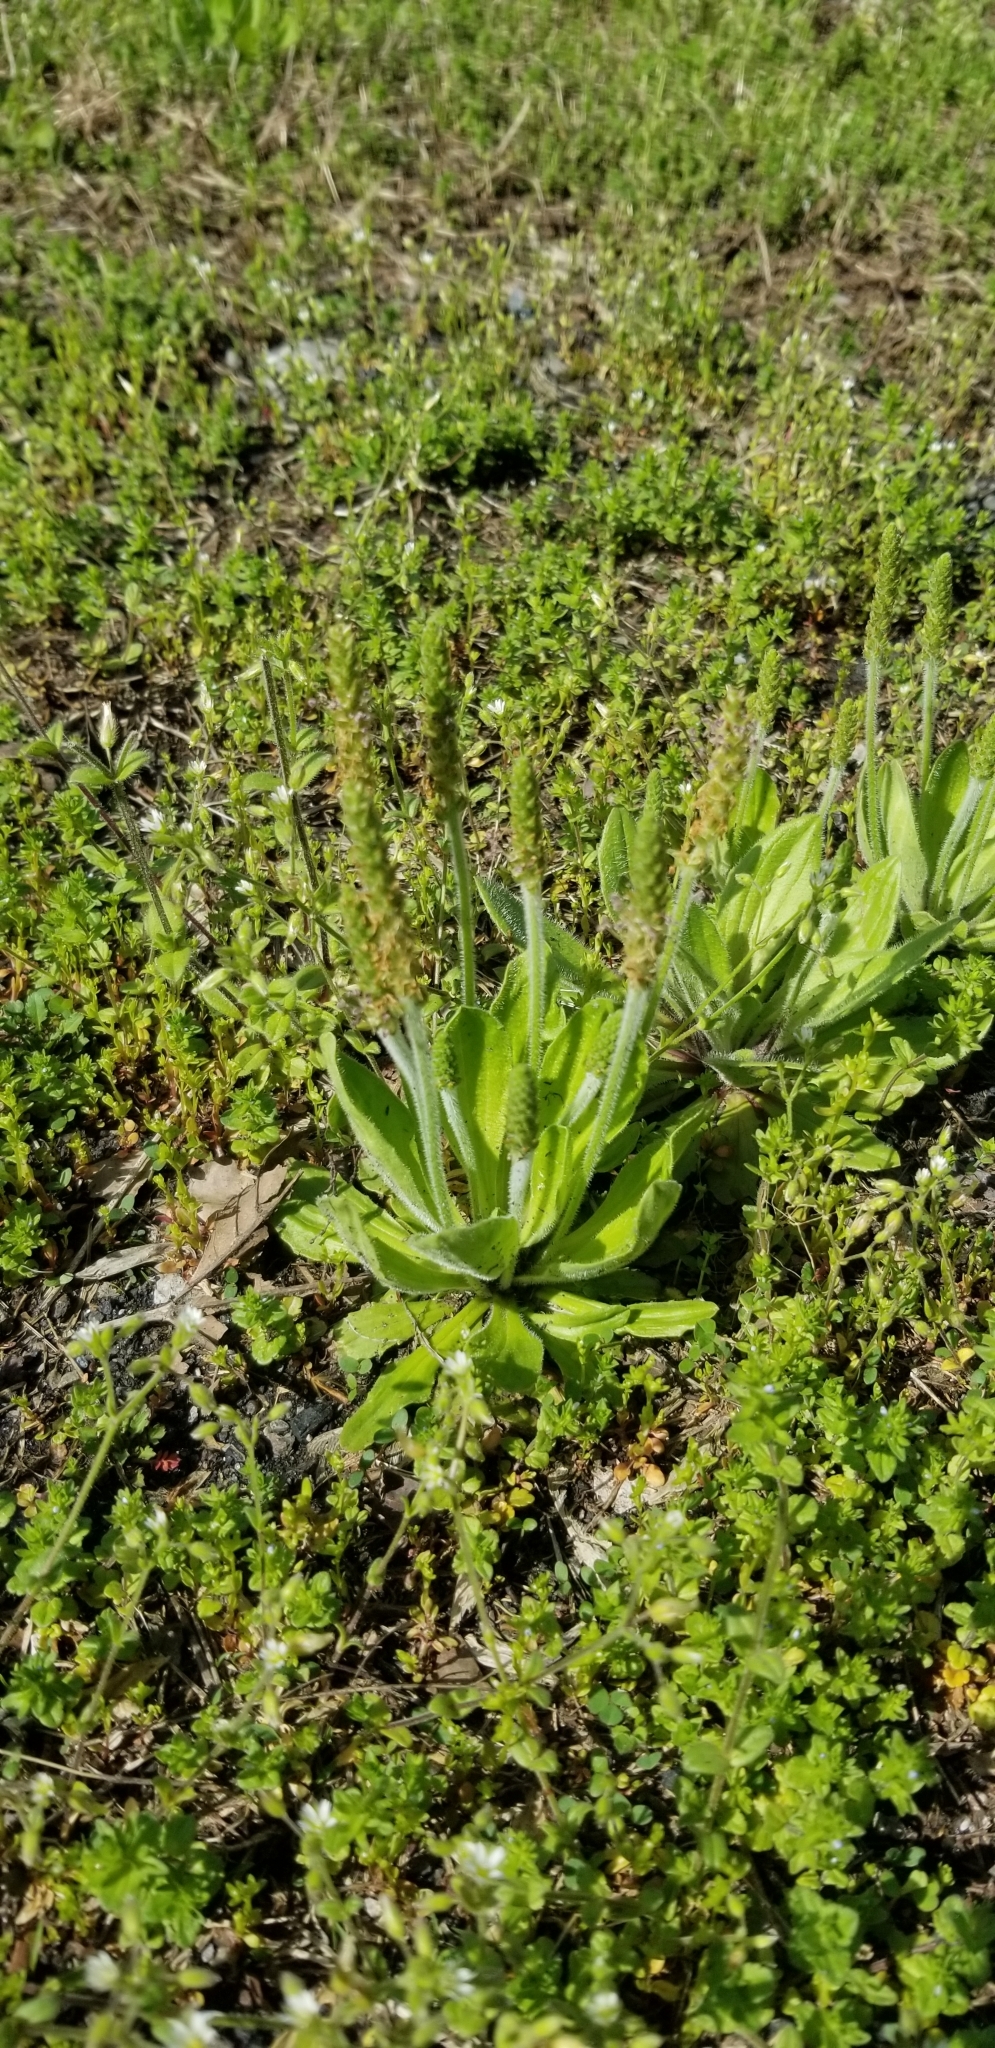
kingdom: Plantae
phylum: Tracheophyta
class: Magnoliopsida
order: Lamiales
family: Plantaginaceae
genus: Plantago
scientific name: Plantago virginica
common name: Hoary plantain
